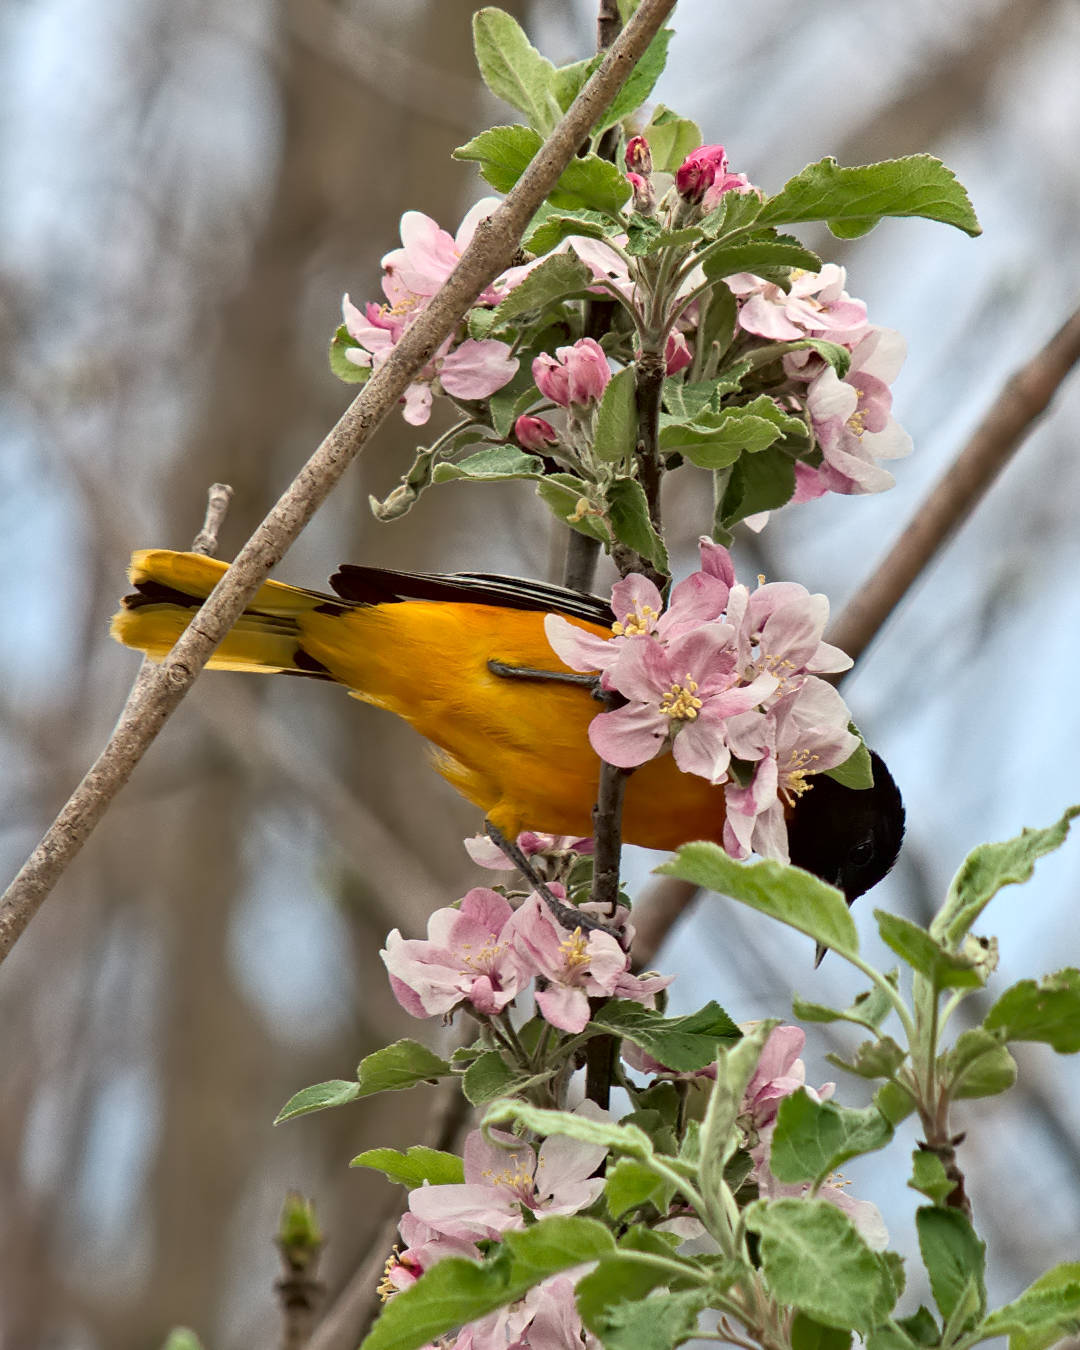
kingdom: Animalia
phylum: Chordata
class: Aves
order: Passeriformes
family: Icteridae
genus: Icterus
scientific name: Icterus galbula
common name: Baltimore oriole
